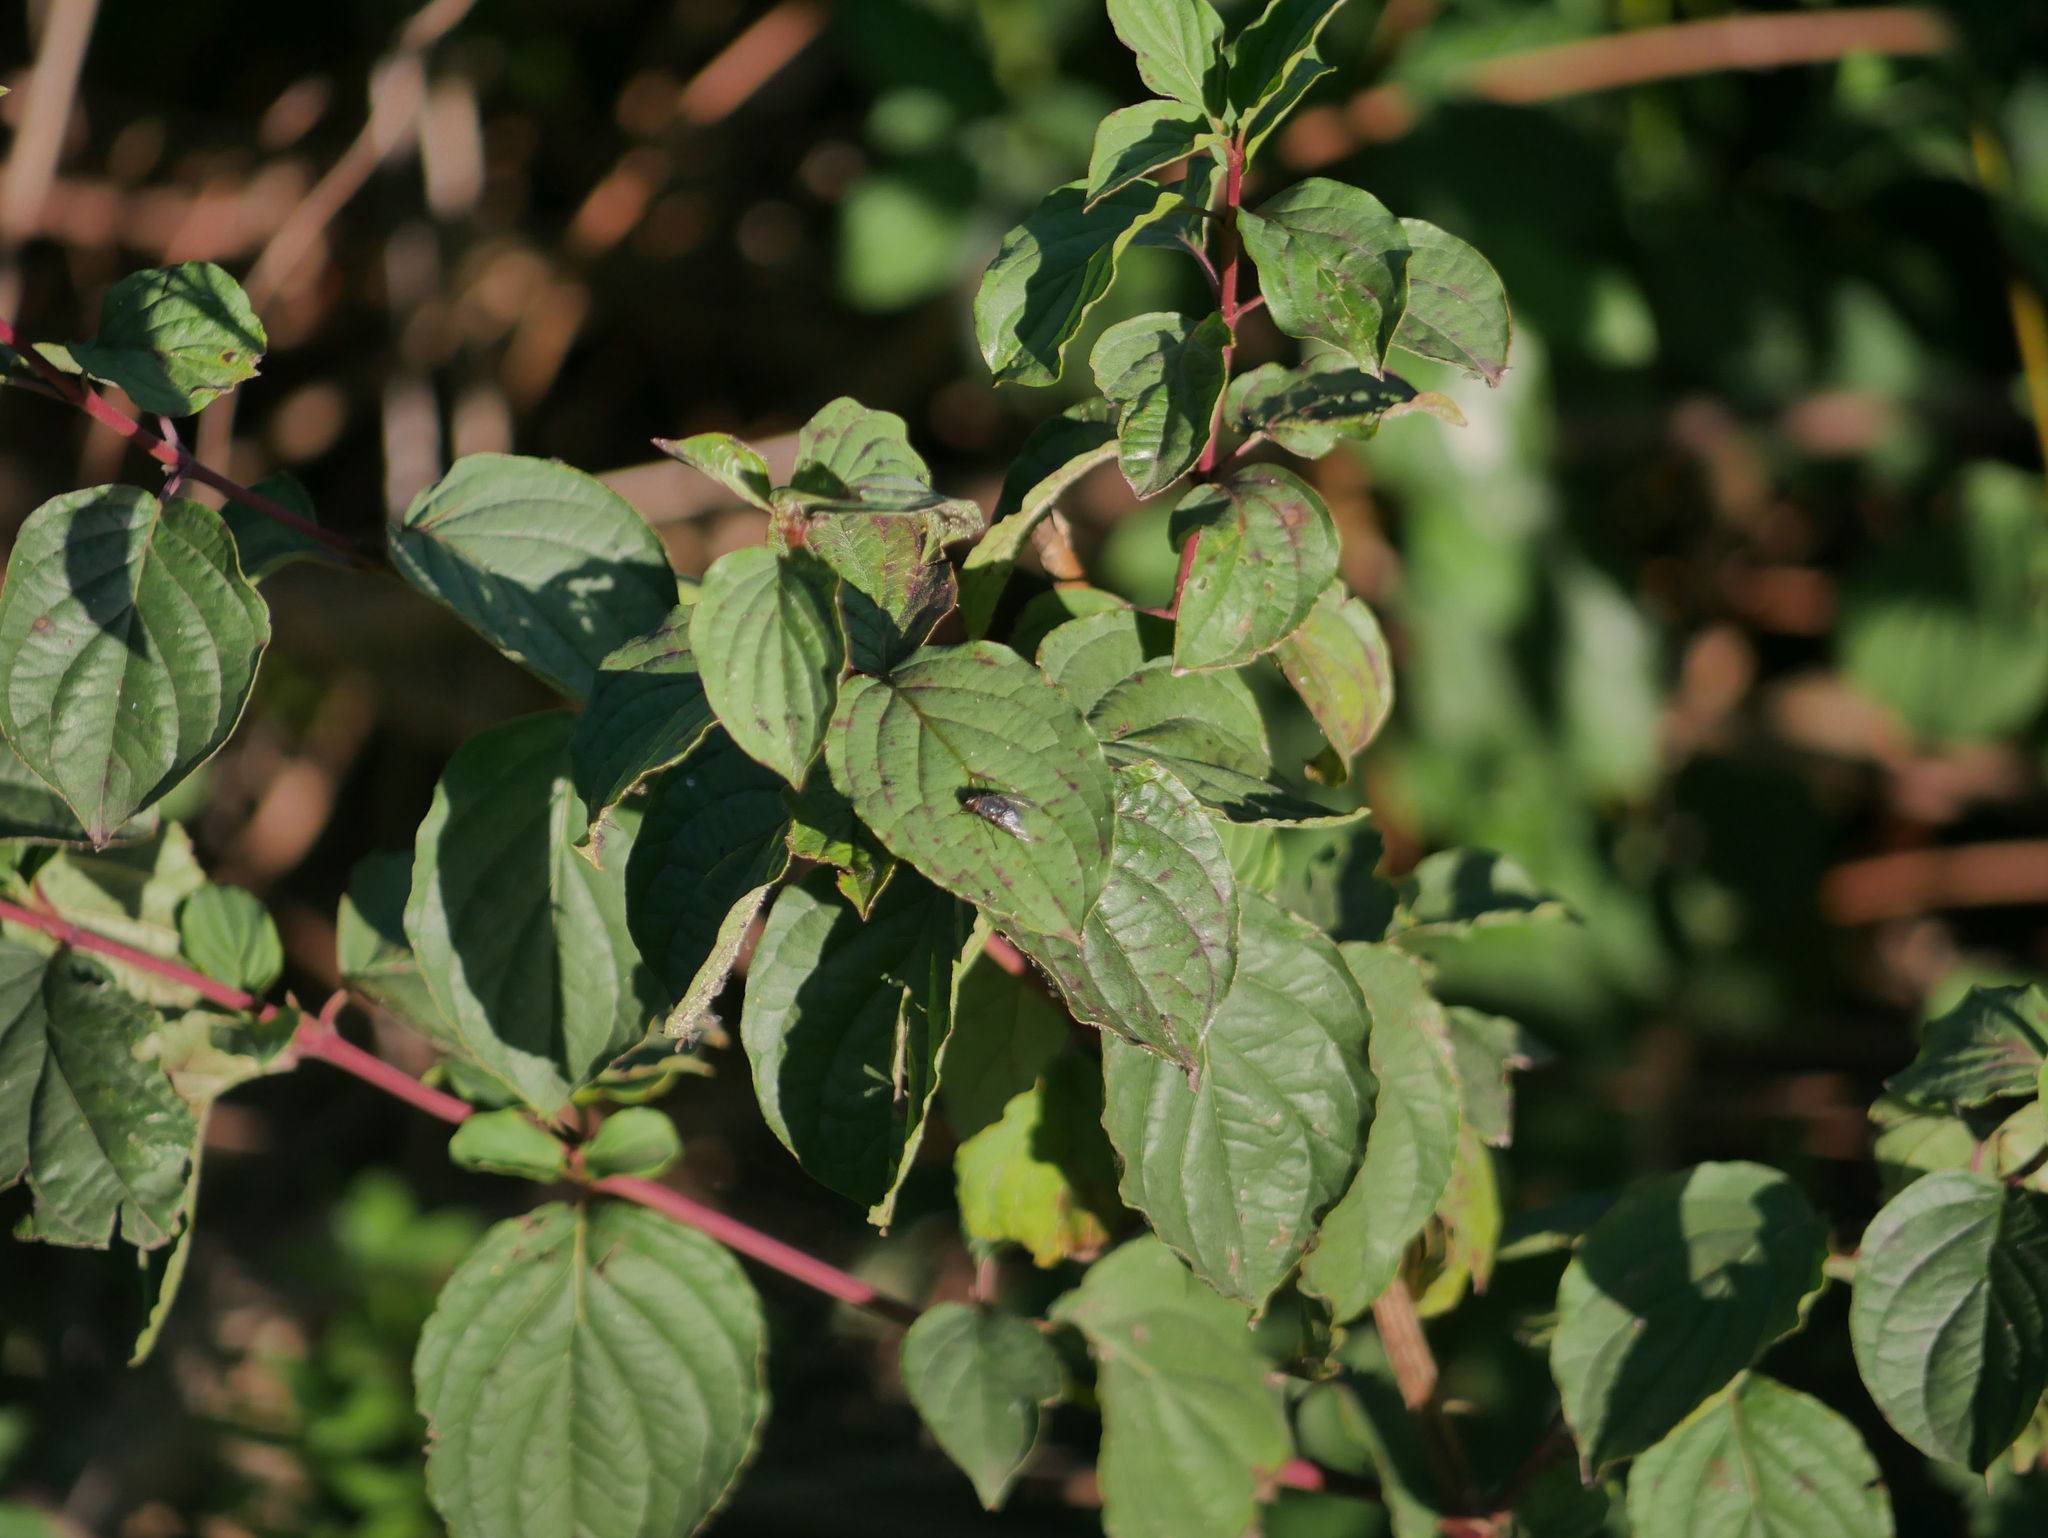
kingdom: Plantae
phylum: Tracheophyta
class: Magnoliopsida
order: Cornales
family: Cornaceae
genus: Cornus
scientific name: Cornus sanguinea
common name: Dogwood
